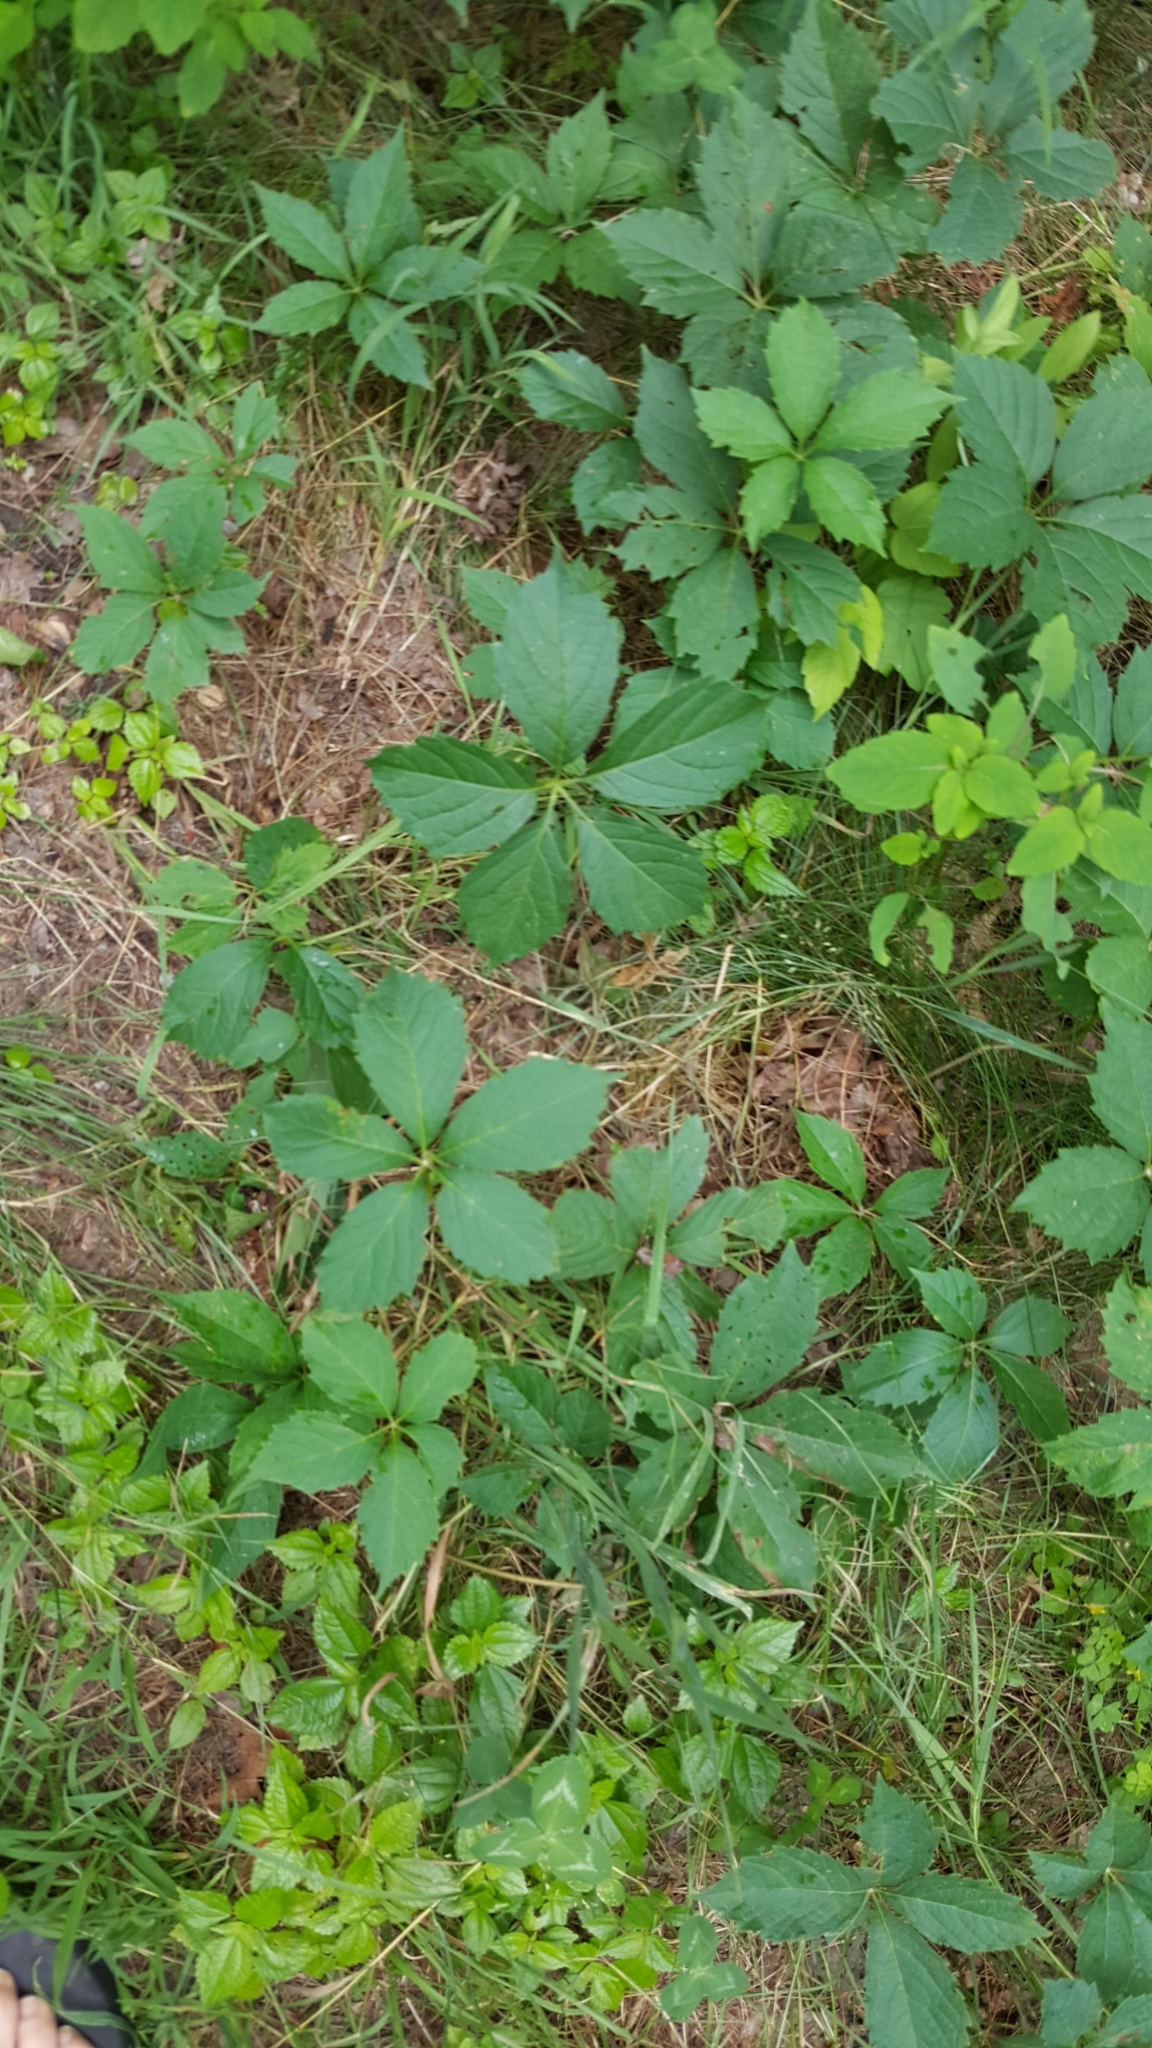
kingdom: Plantae
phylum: Tracheophyta
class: Magnoliopsida
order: Vitales
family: Vitaceae
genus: Parthenocissus
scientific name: Parthenocissus inserta
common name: False virginia-creeper
